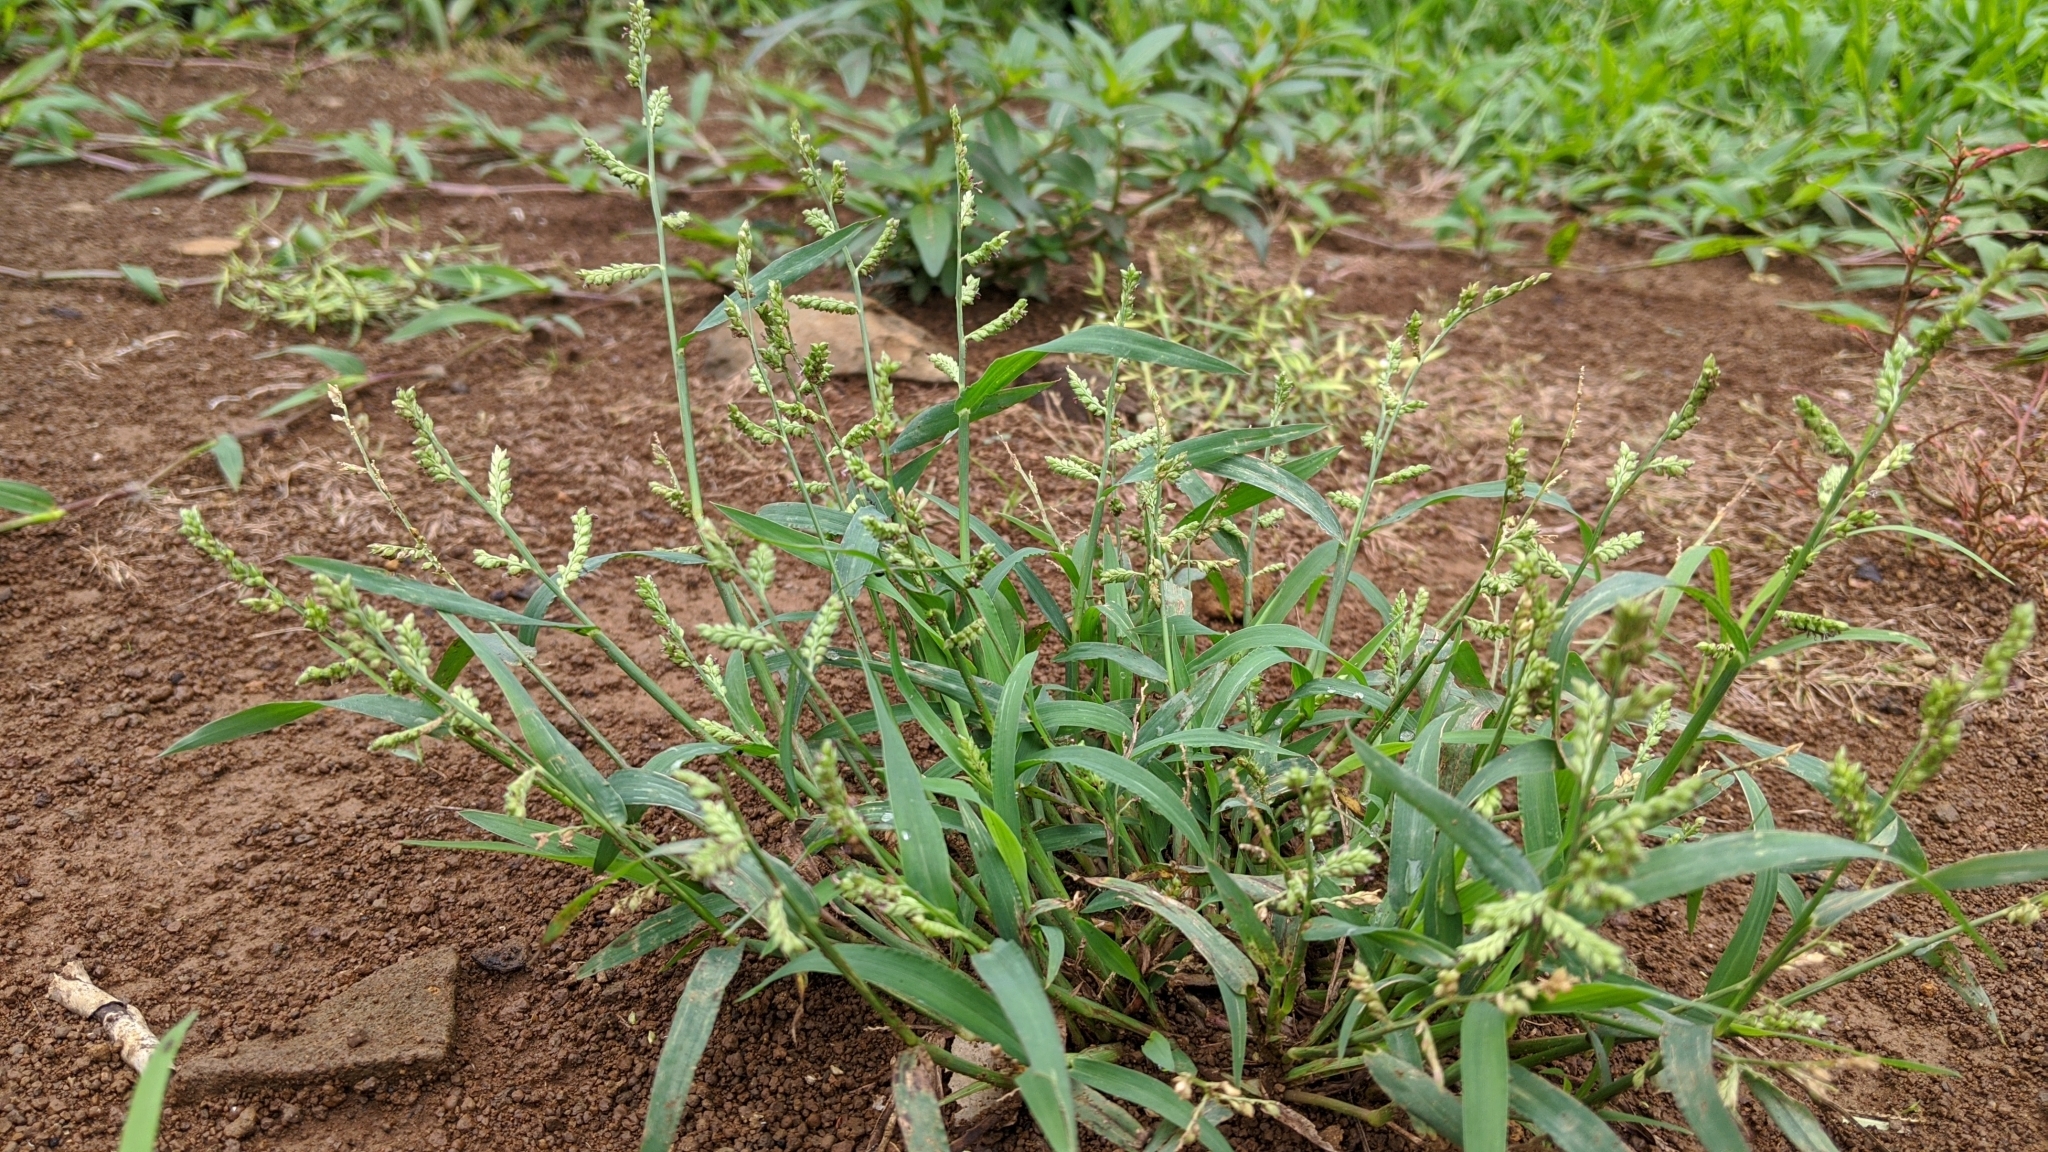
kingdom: Plantae
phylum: Tracheophyta
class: Liliopsida
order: Poales
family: Poaceae
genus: Echinochloa
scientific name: Echinochloa colonum
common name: Jungle rice
